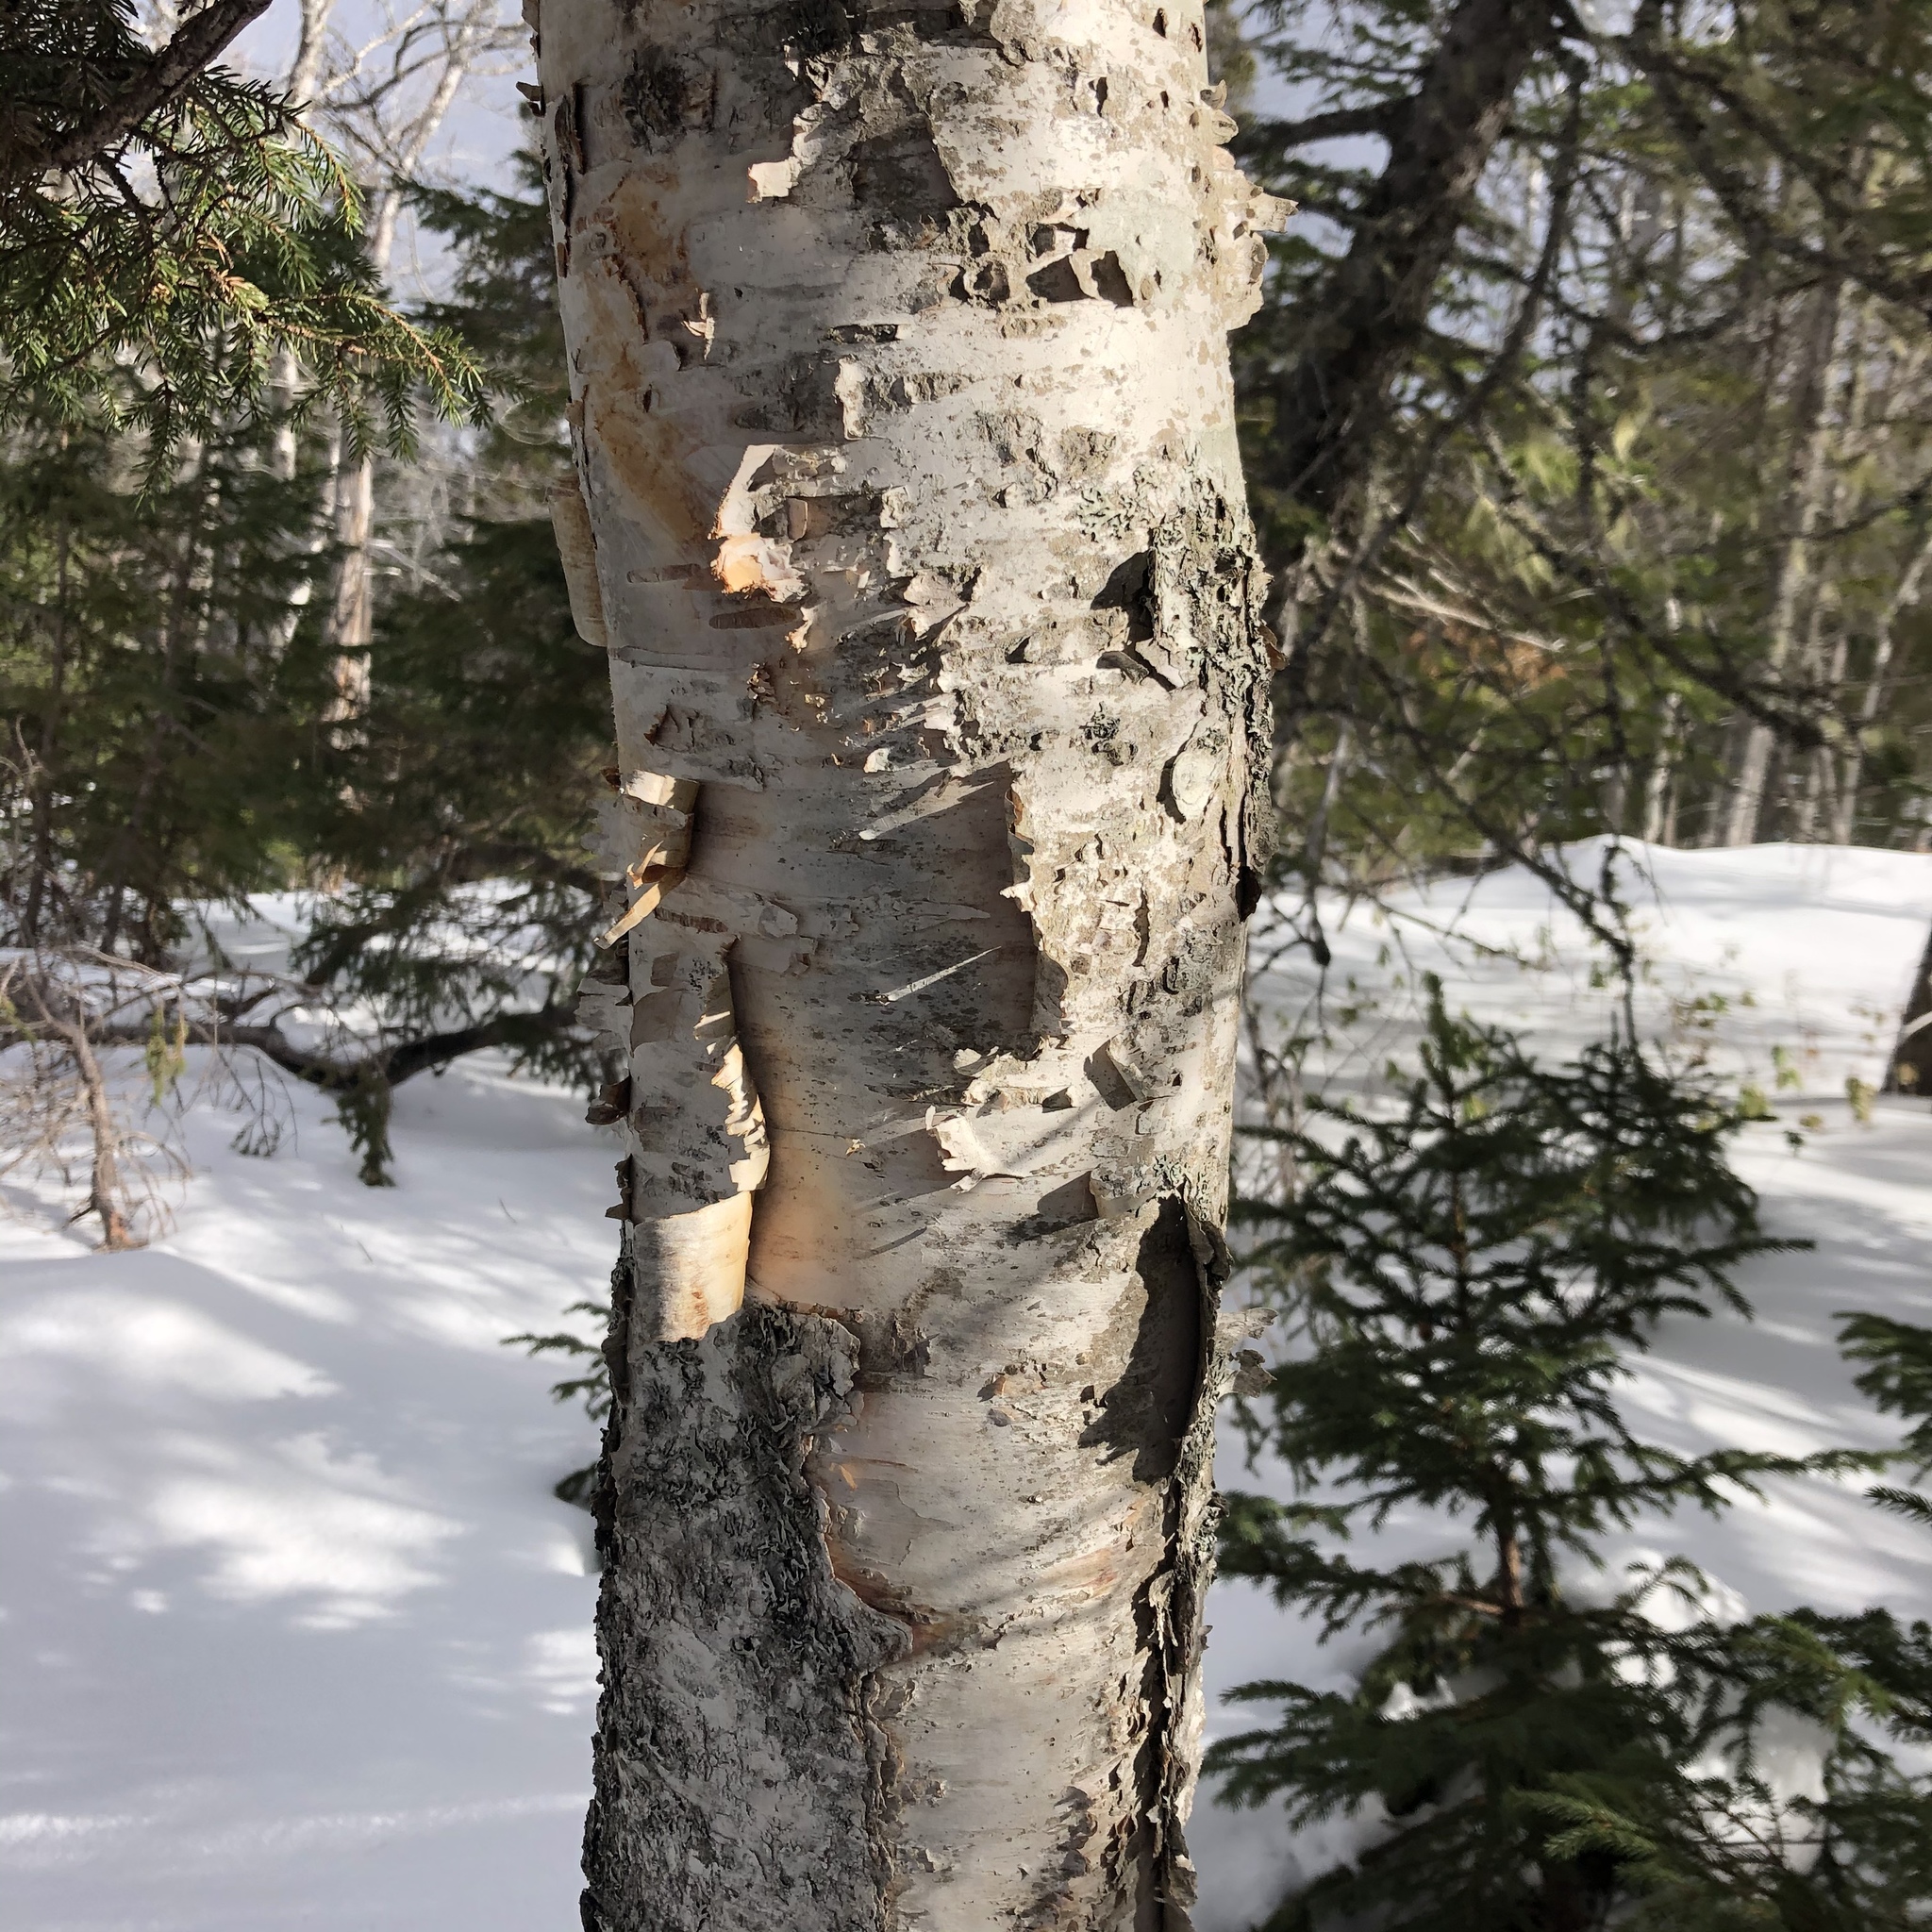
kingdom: Plantae
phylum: Tracheophyta
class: Magnoliopsida
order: Fagales
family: Betulaceae
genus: Betula
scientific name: Betula papyrifera
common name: Paper birch
